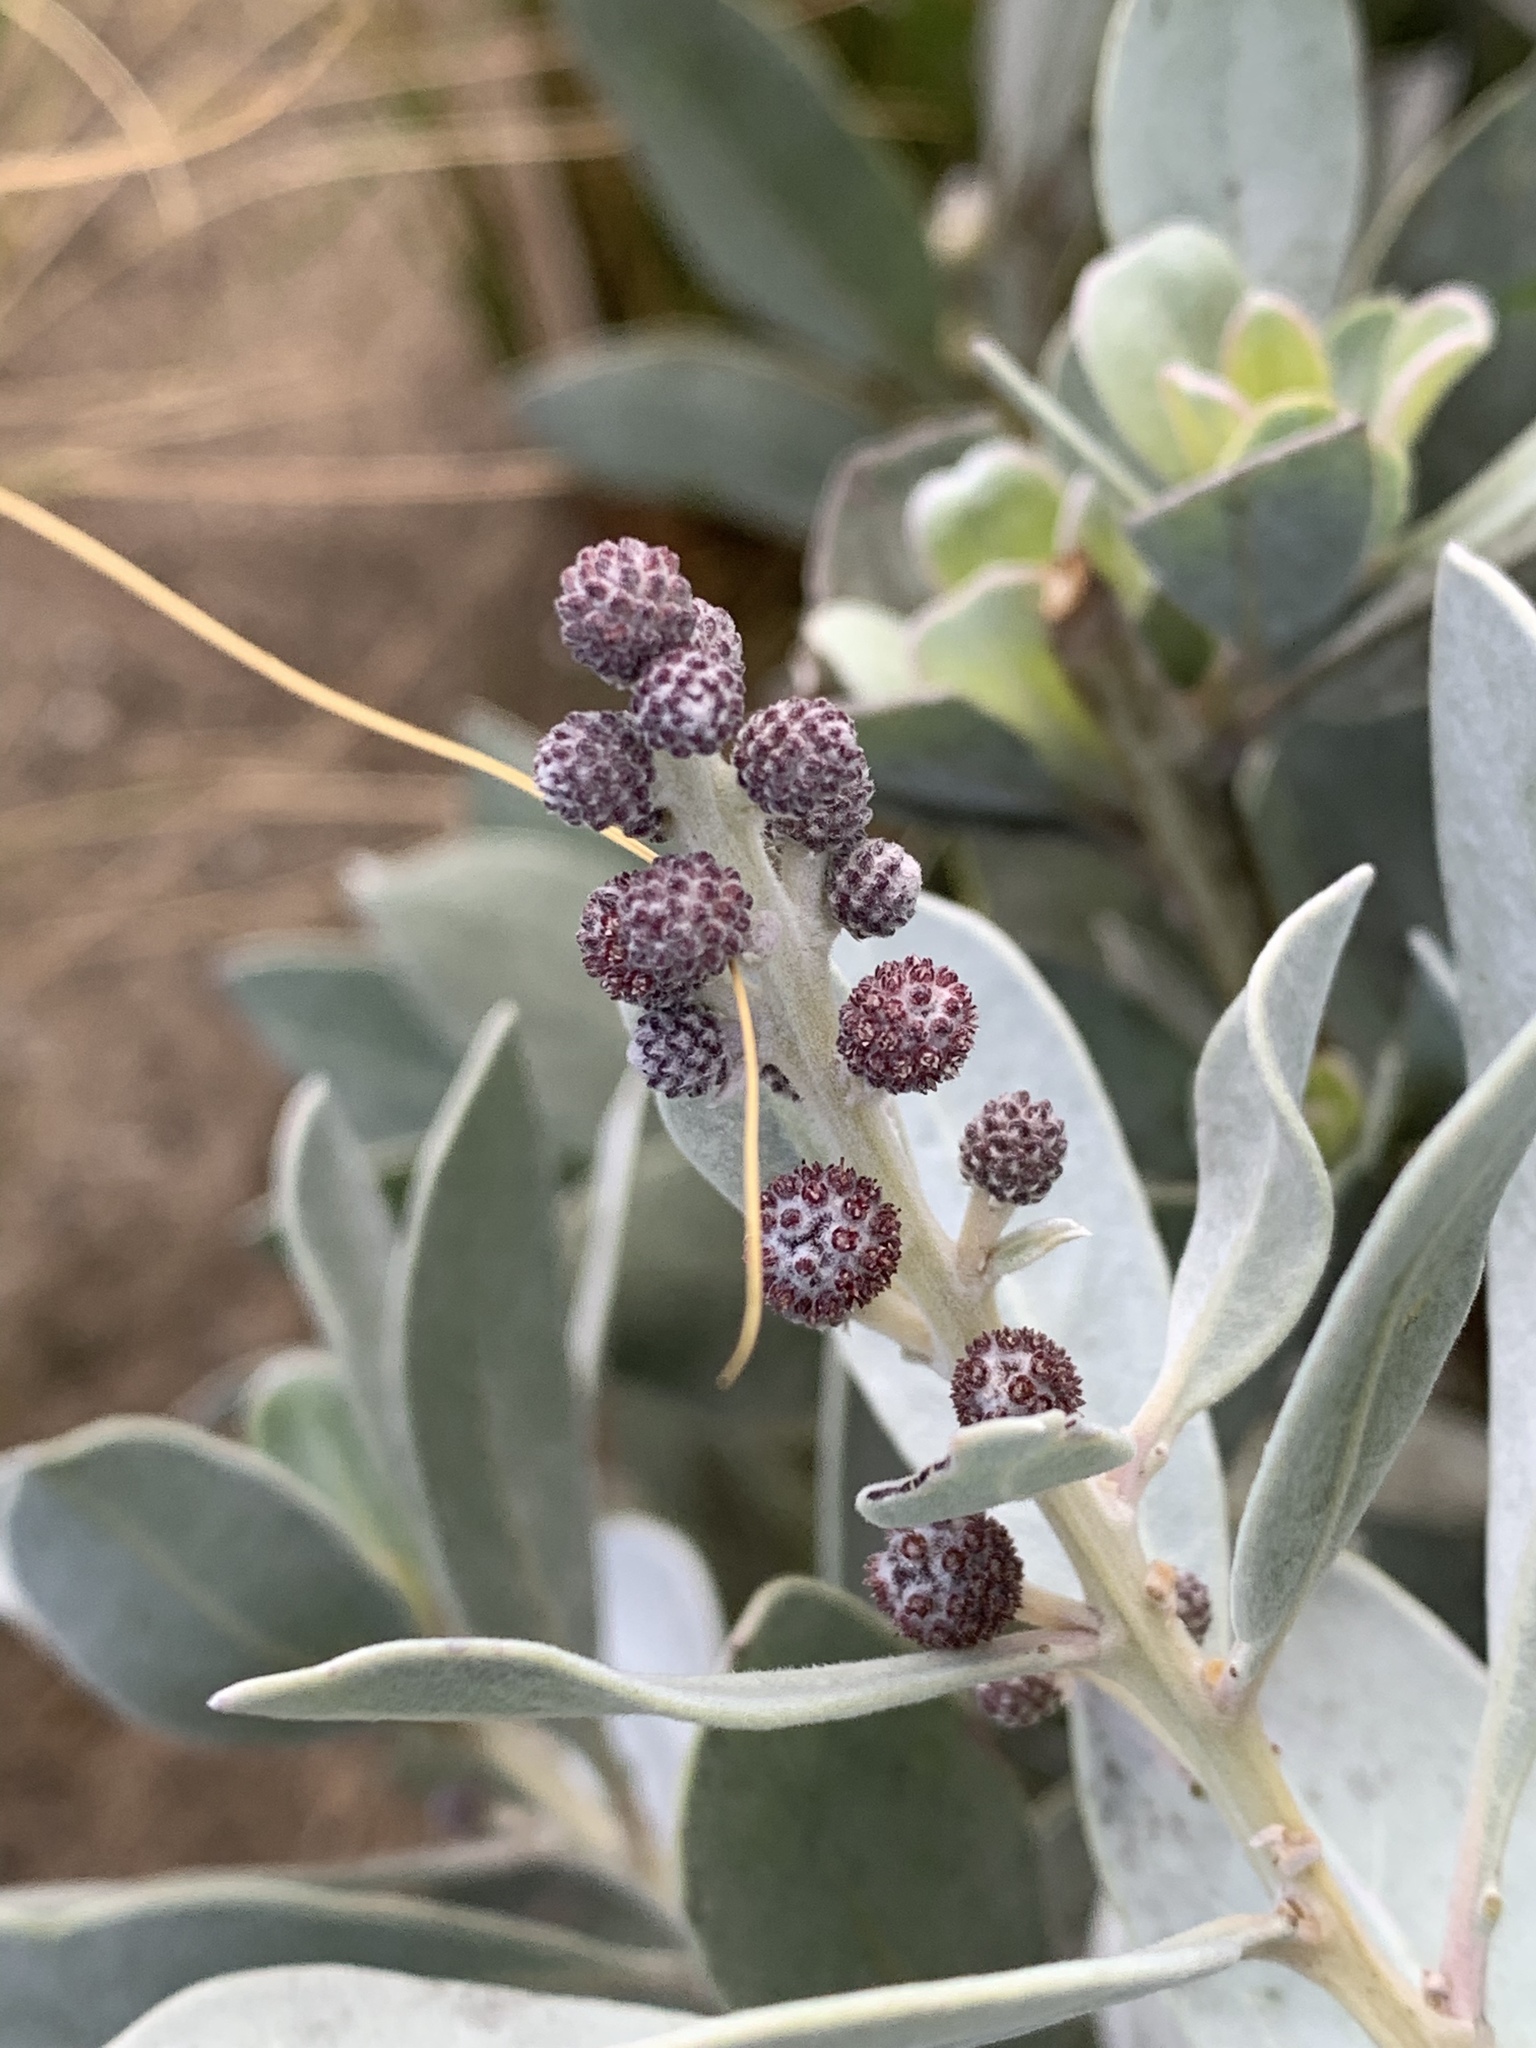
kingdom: Plantae
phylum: Tracheophyta
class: Magnoliopsida
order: Myrtales
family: Combretaceae
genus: Conocarpus
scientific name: Conocarpus erectus
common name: Button mangrove
